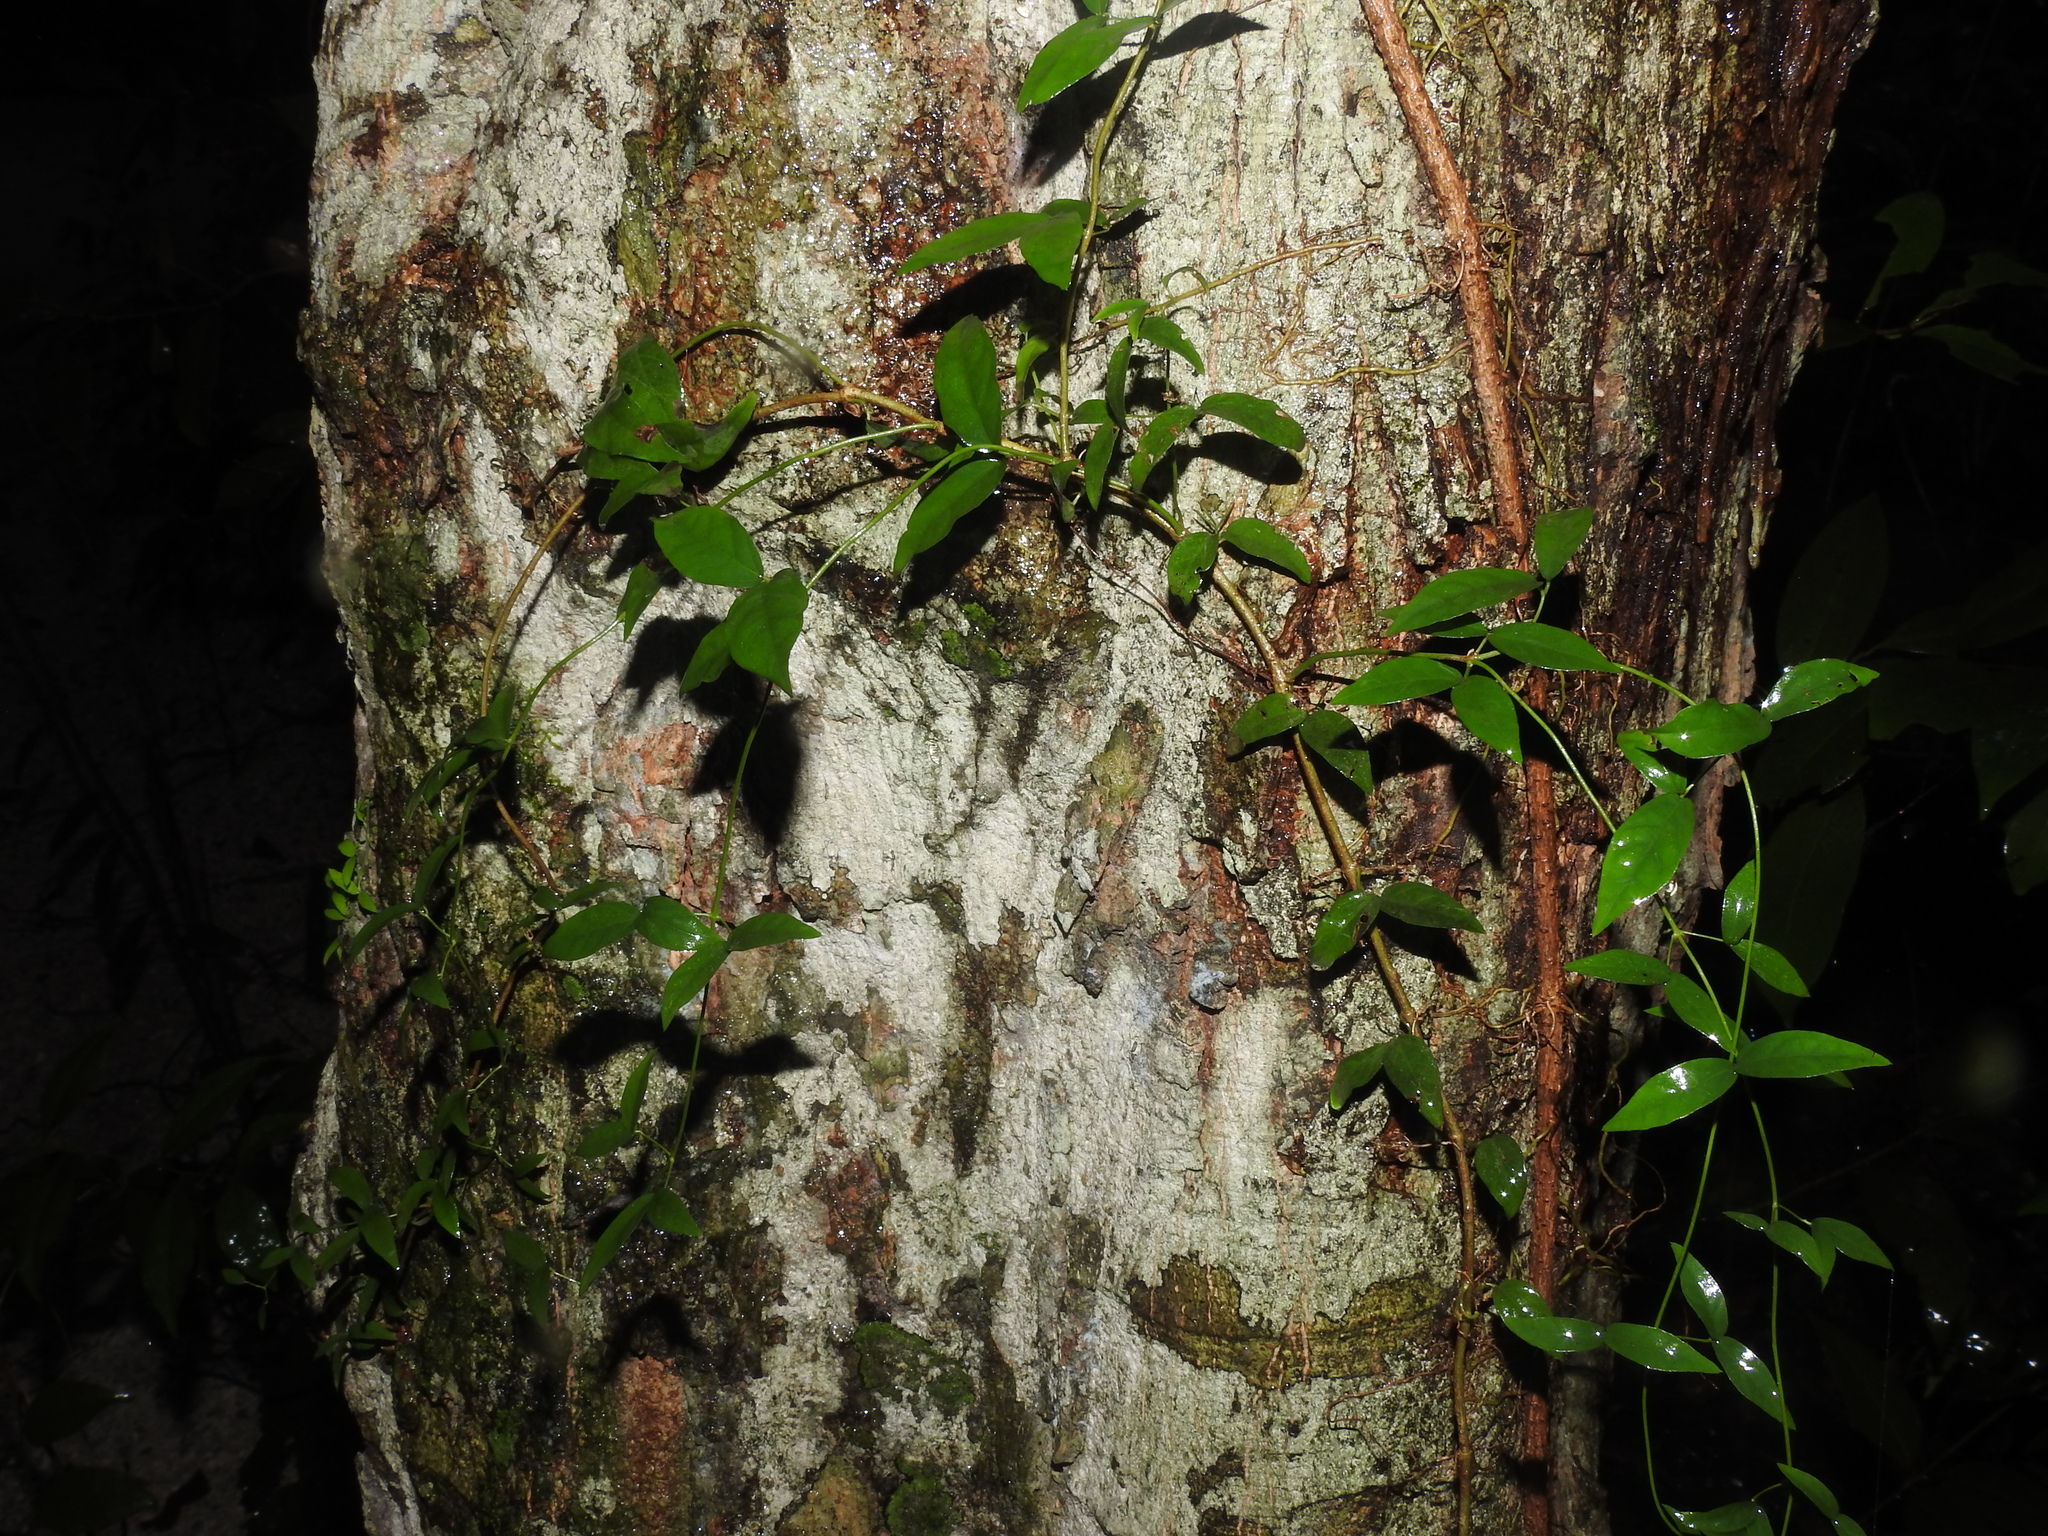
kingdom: Plantae
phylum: Tracheophyta
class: Magnoliopsida
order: Lamiales
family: Bignoniaceae
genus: Dolichandra
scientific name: Dolichandra unguis-cati
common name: Catclaw vine
